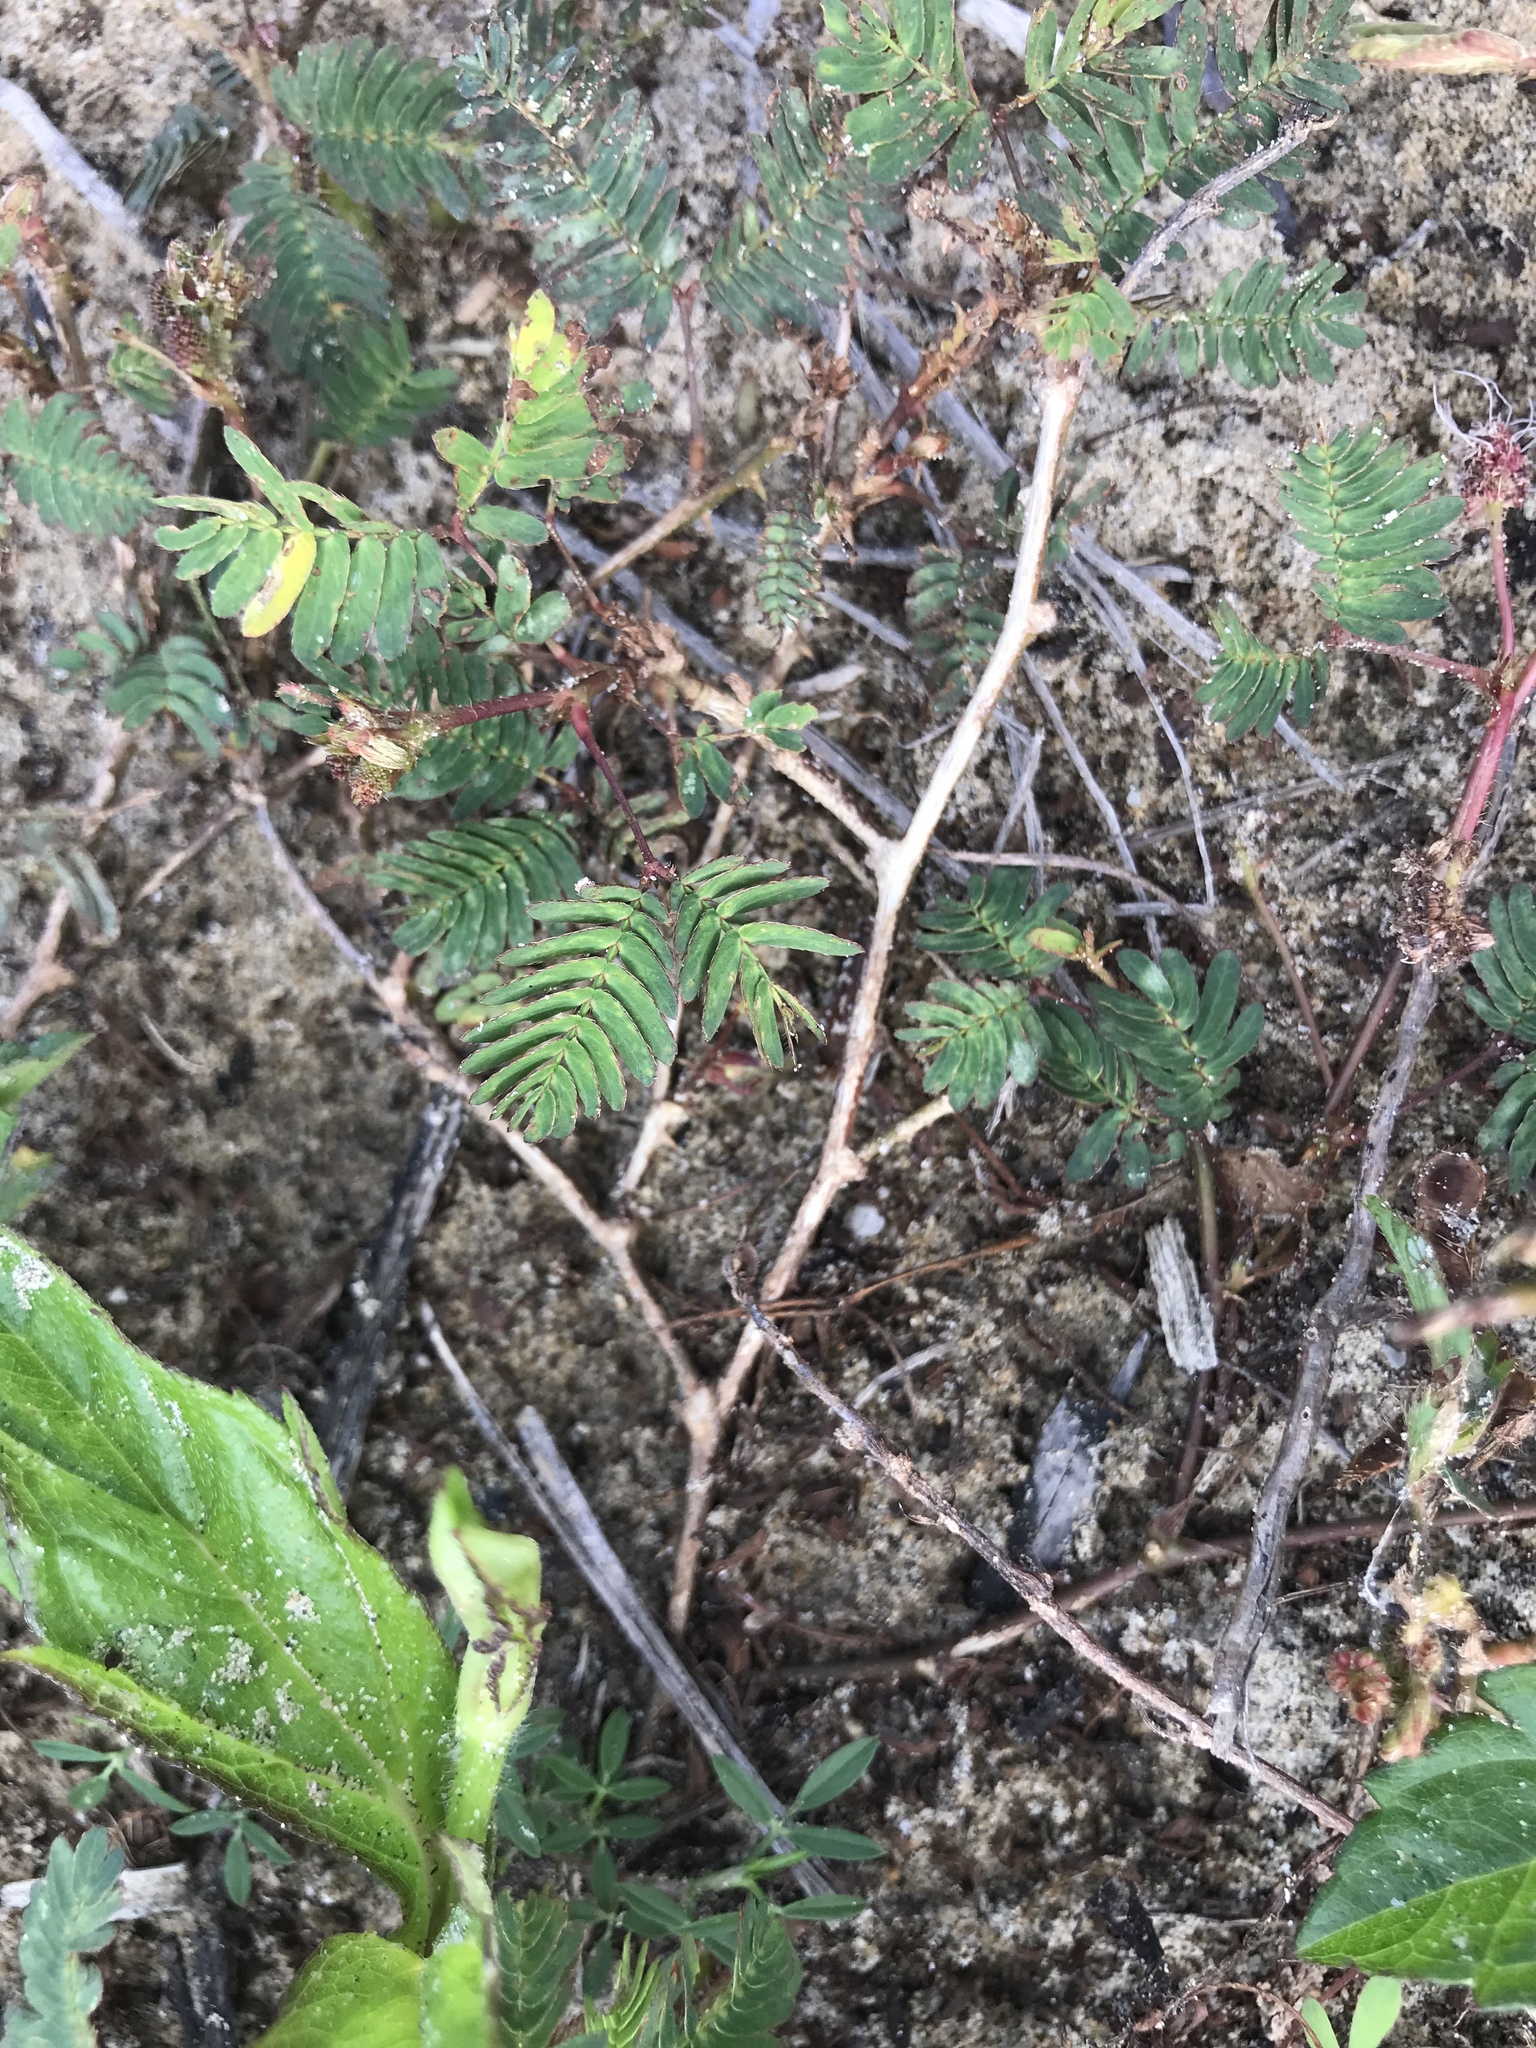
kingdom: Plantae
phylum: Tracheophyta
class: Magnoliopsida
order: Fabales
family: Fabaceae
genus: Mimosa
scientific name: Mimosa pudica
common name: Sensitive plant
